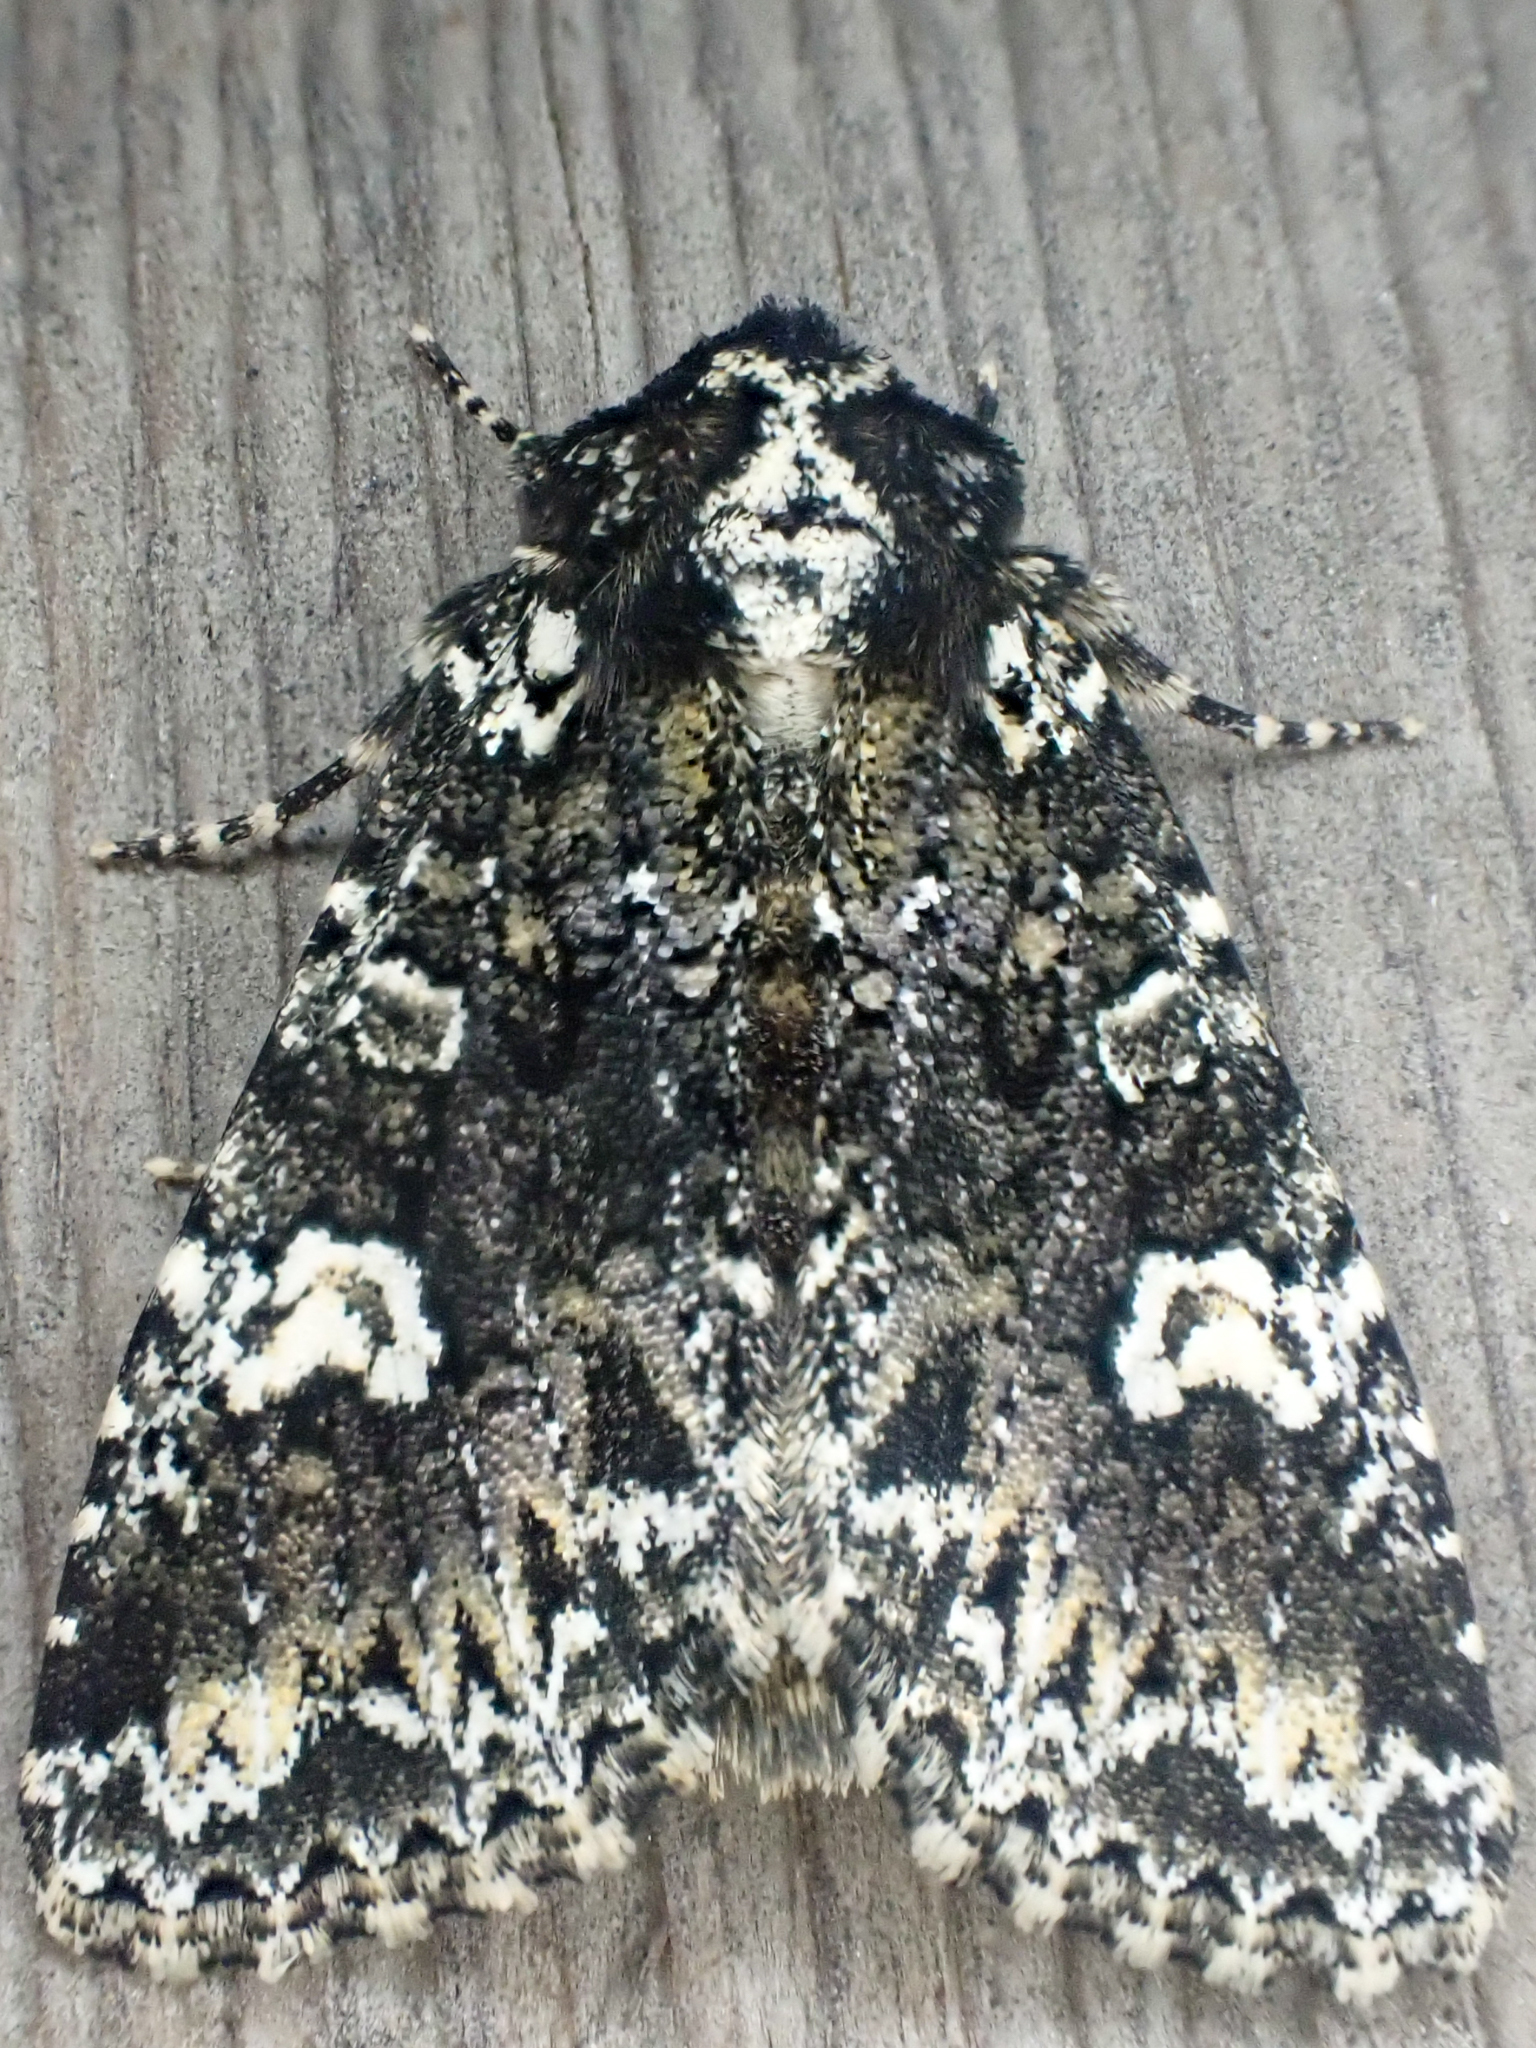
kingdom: Animalia
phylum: Arthropoda
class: Insecta
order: Lepidoptera
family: Noctuidae
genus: Melanchra
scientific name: Melanchra adjuncta
